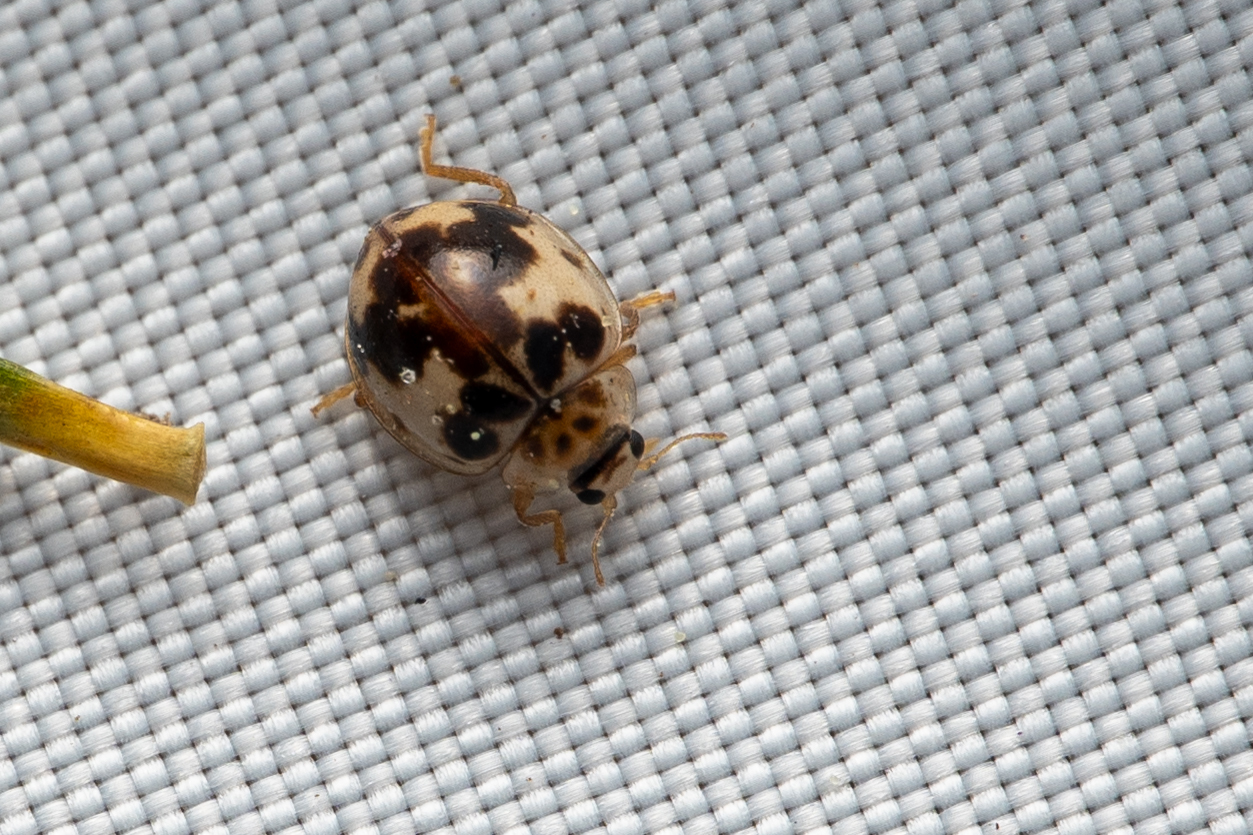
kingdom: Animalia
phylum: Arthropoda
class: Insecta
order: Coleoptera
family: Coccinellidae
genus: Psyllobora
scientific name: Psyllobora borealis
